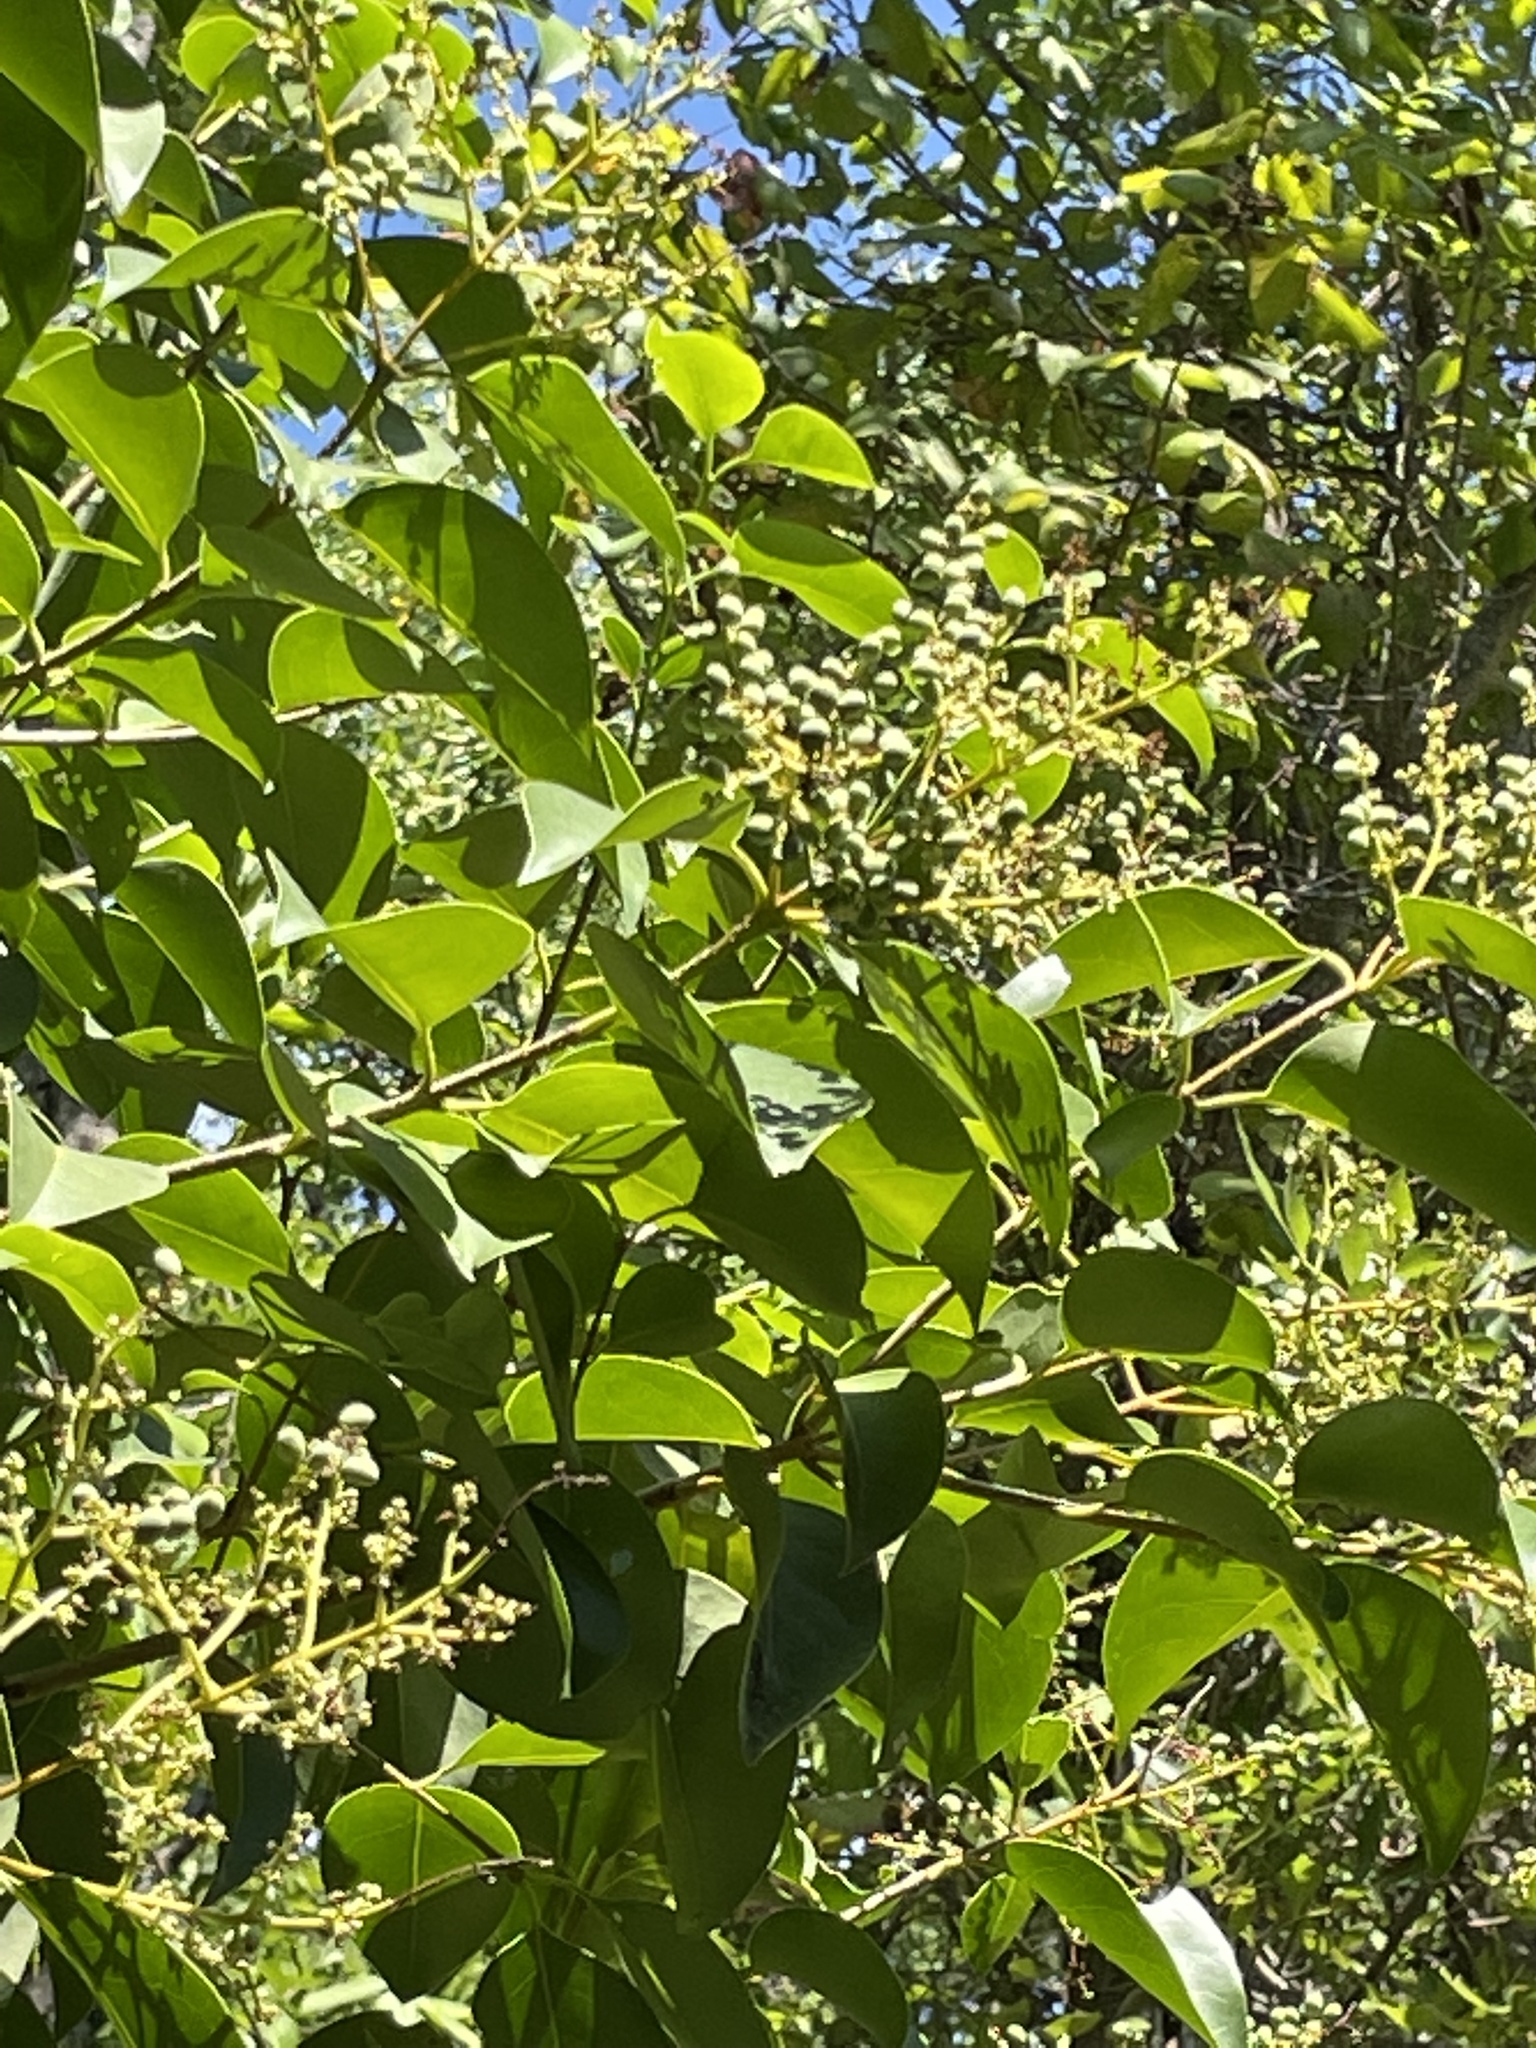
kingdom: Plantae
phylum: Tracheophyta
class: Magnoliopsida
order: Lamiales
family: Oleaceae
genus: Ligustrum
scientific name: Ligustrum lucidum
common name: Glossy privet
